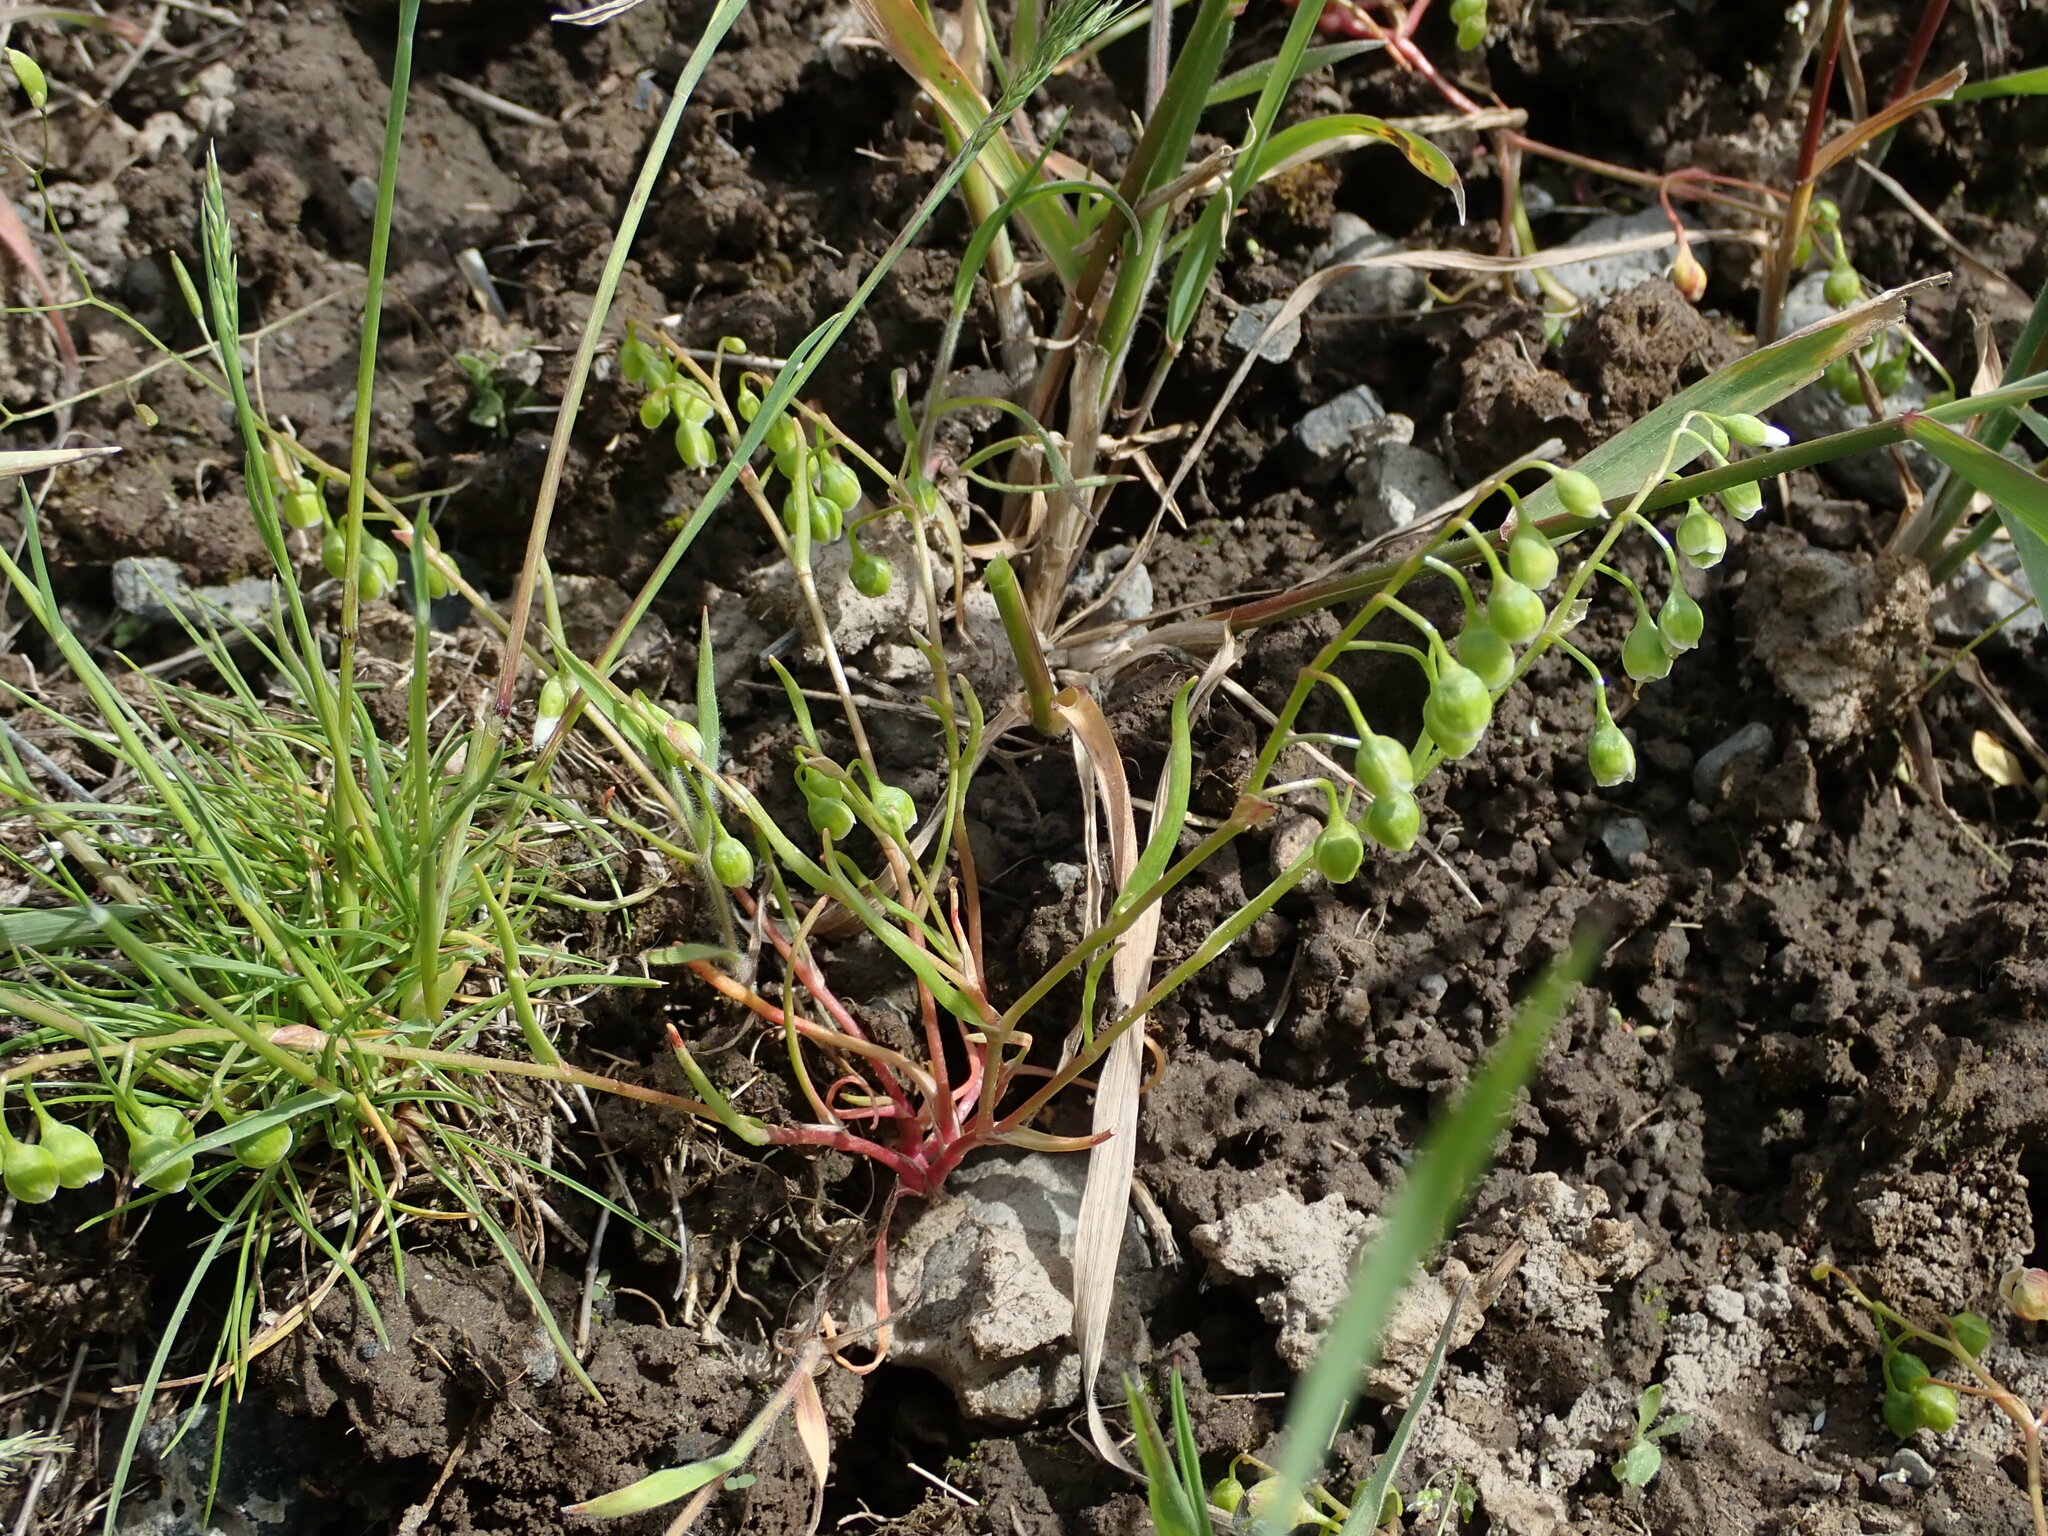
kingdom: Plantae
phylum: Tracheophyta
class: Magnoliopsida
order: Caryophyllales
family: Montiaceae
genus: Montia
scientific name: Montia linearis
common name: Narrow-leaf montia
